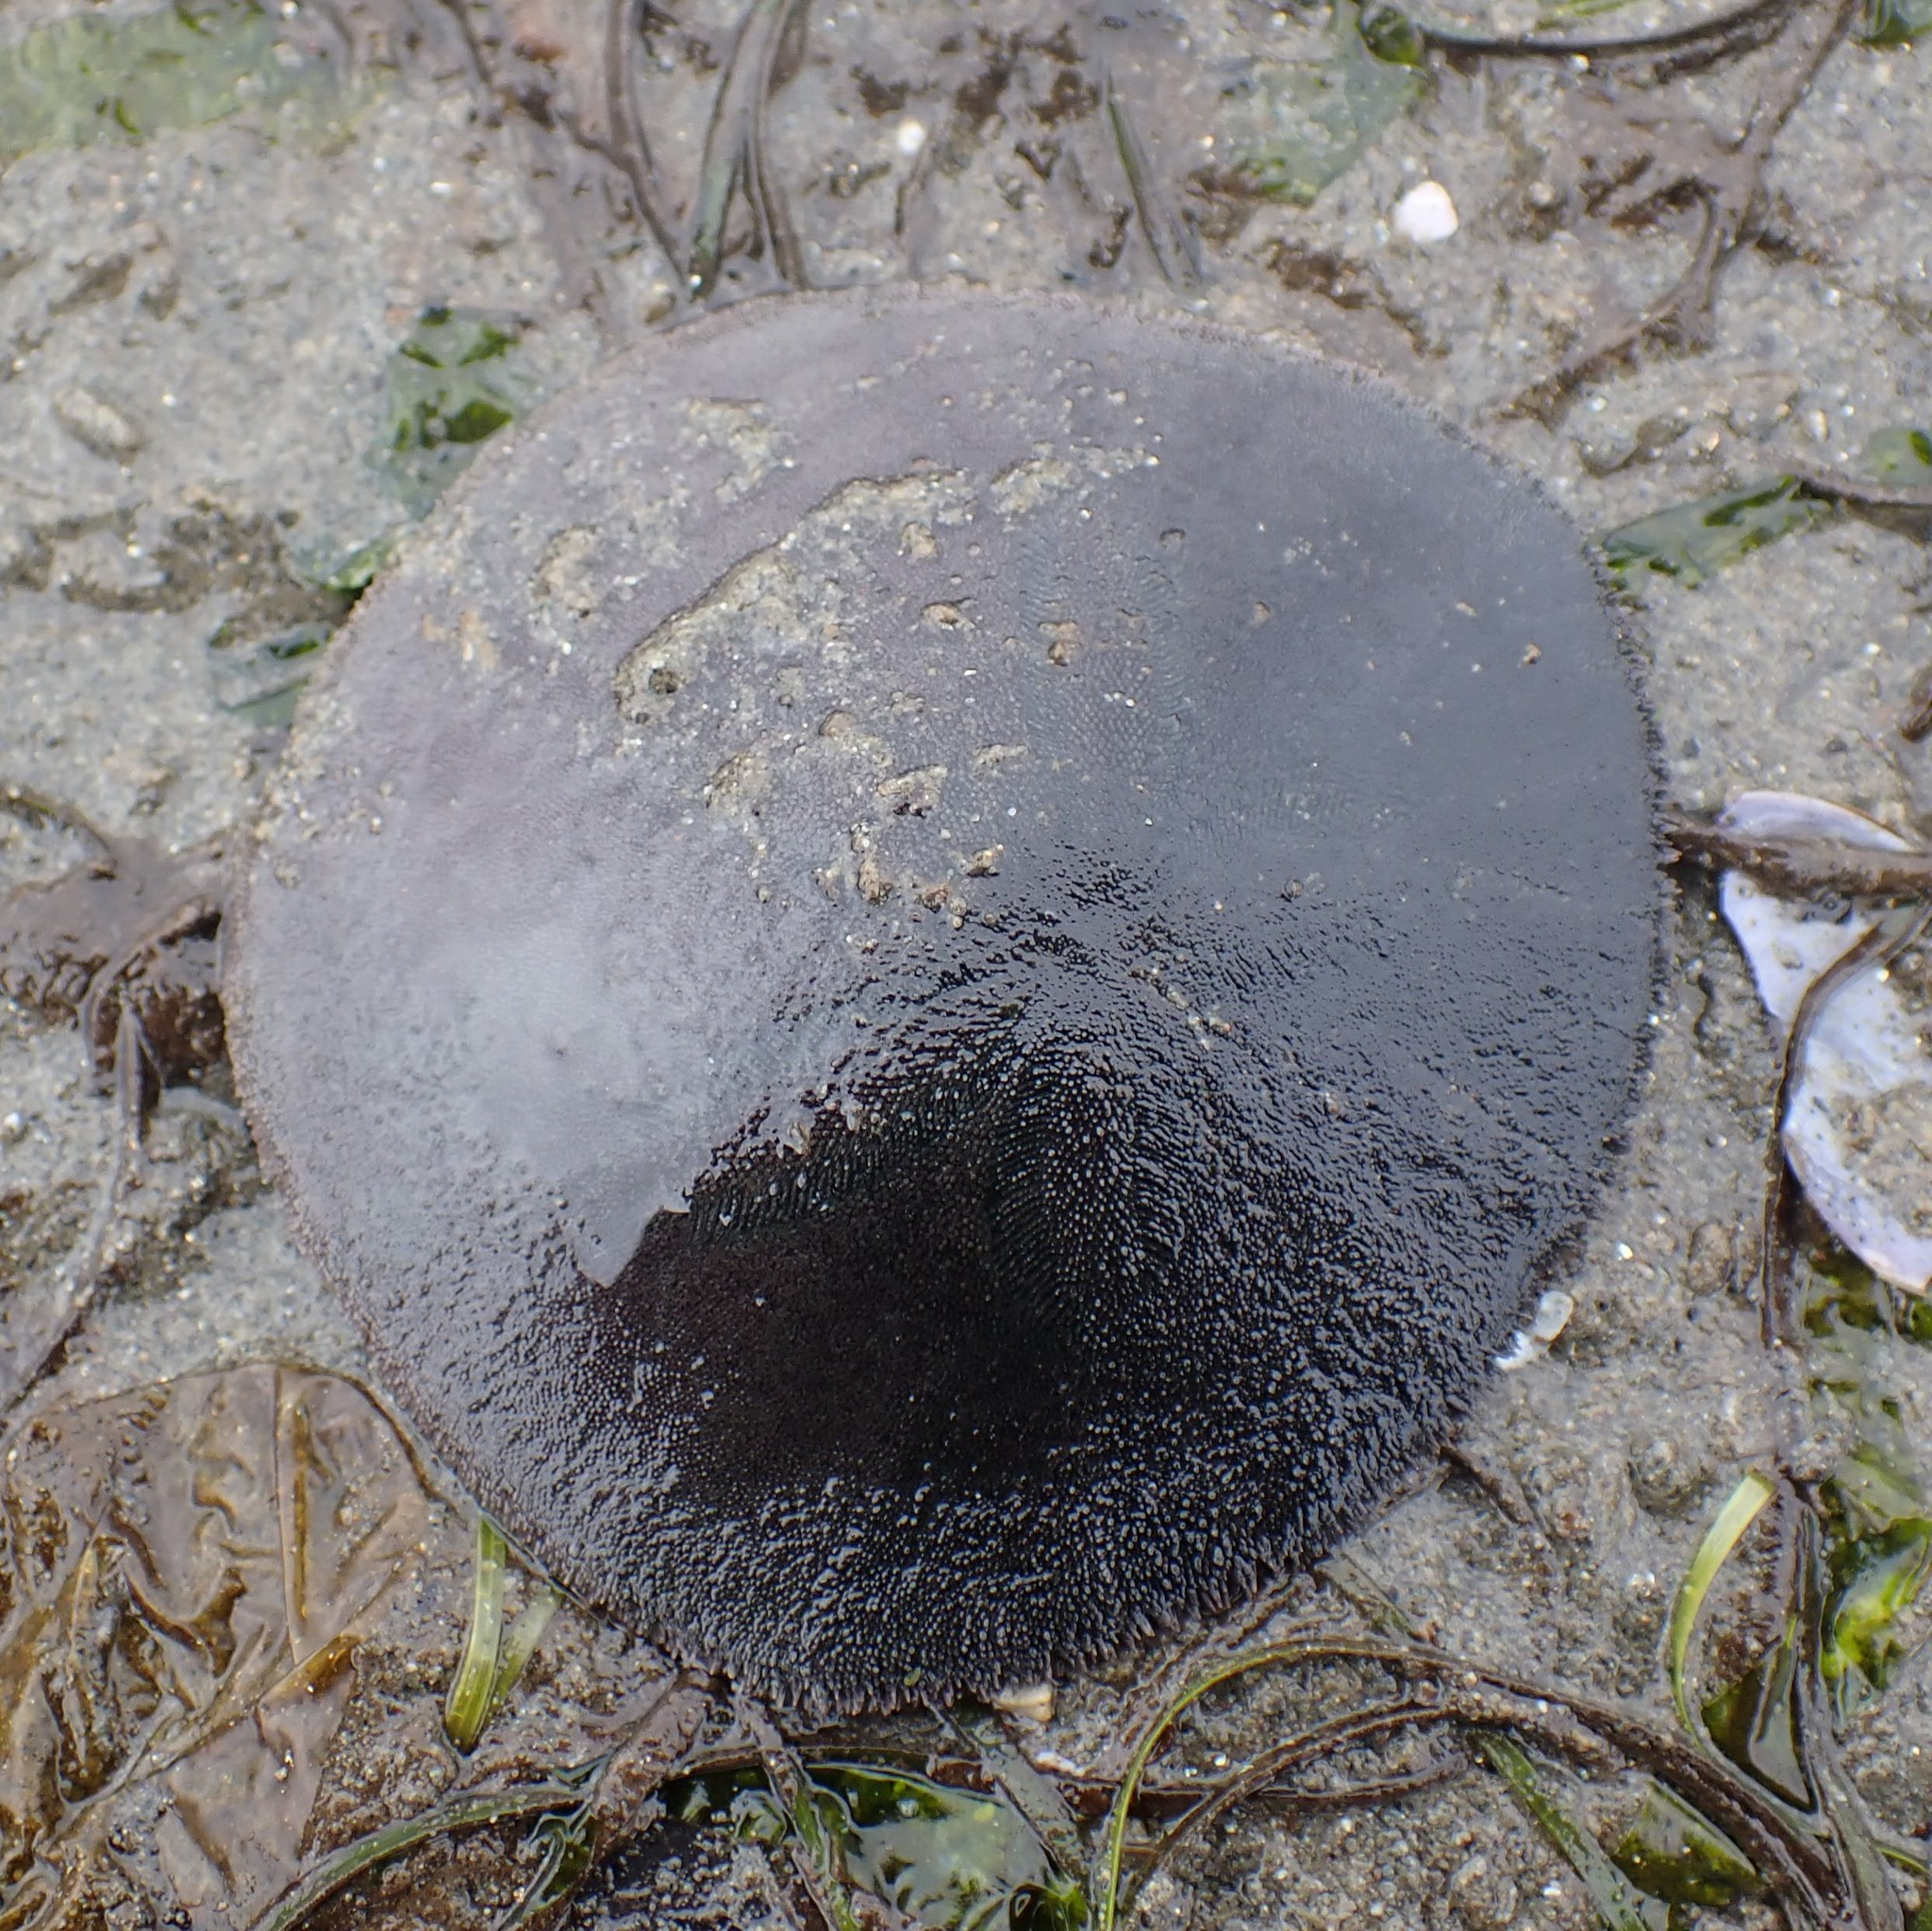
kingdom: Animalia
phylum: Echinodermata
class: Echinoidea
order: Echinolampadacea
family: Dendrasteridae
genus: Dendraster
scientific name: Dendraster excentricus
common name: Eccentric sand dollar sea urchin
